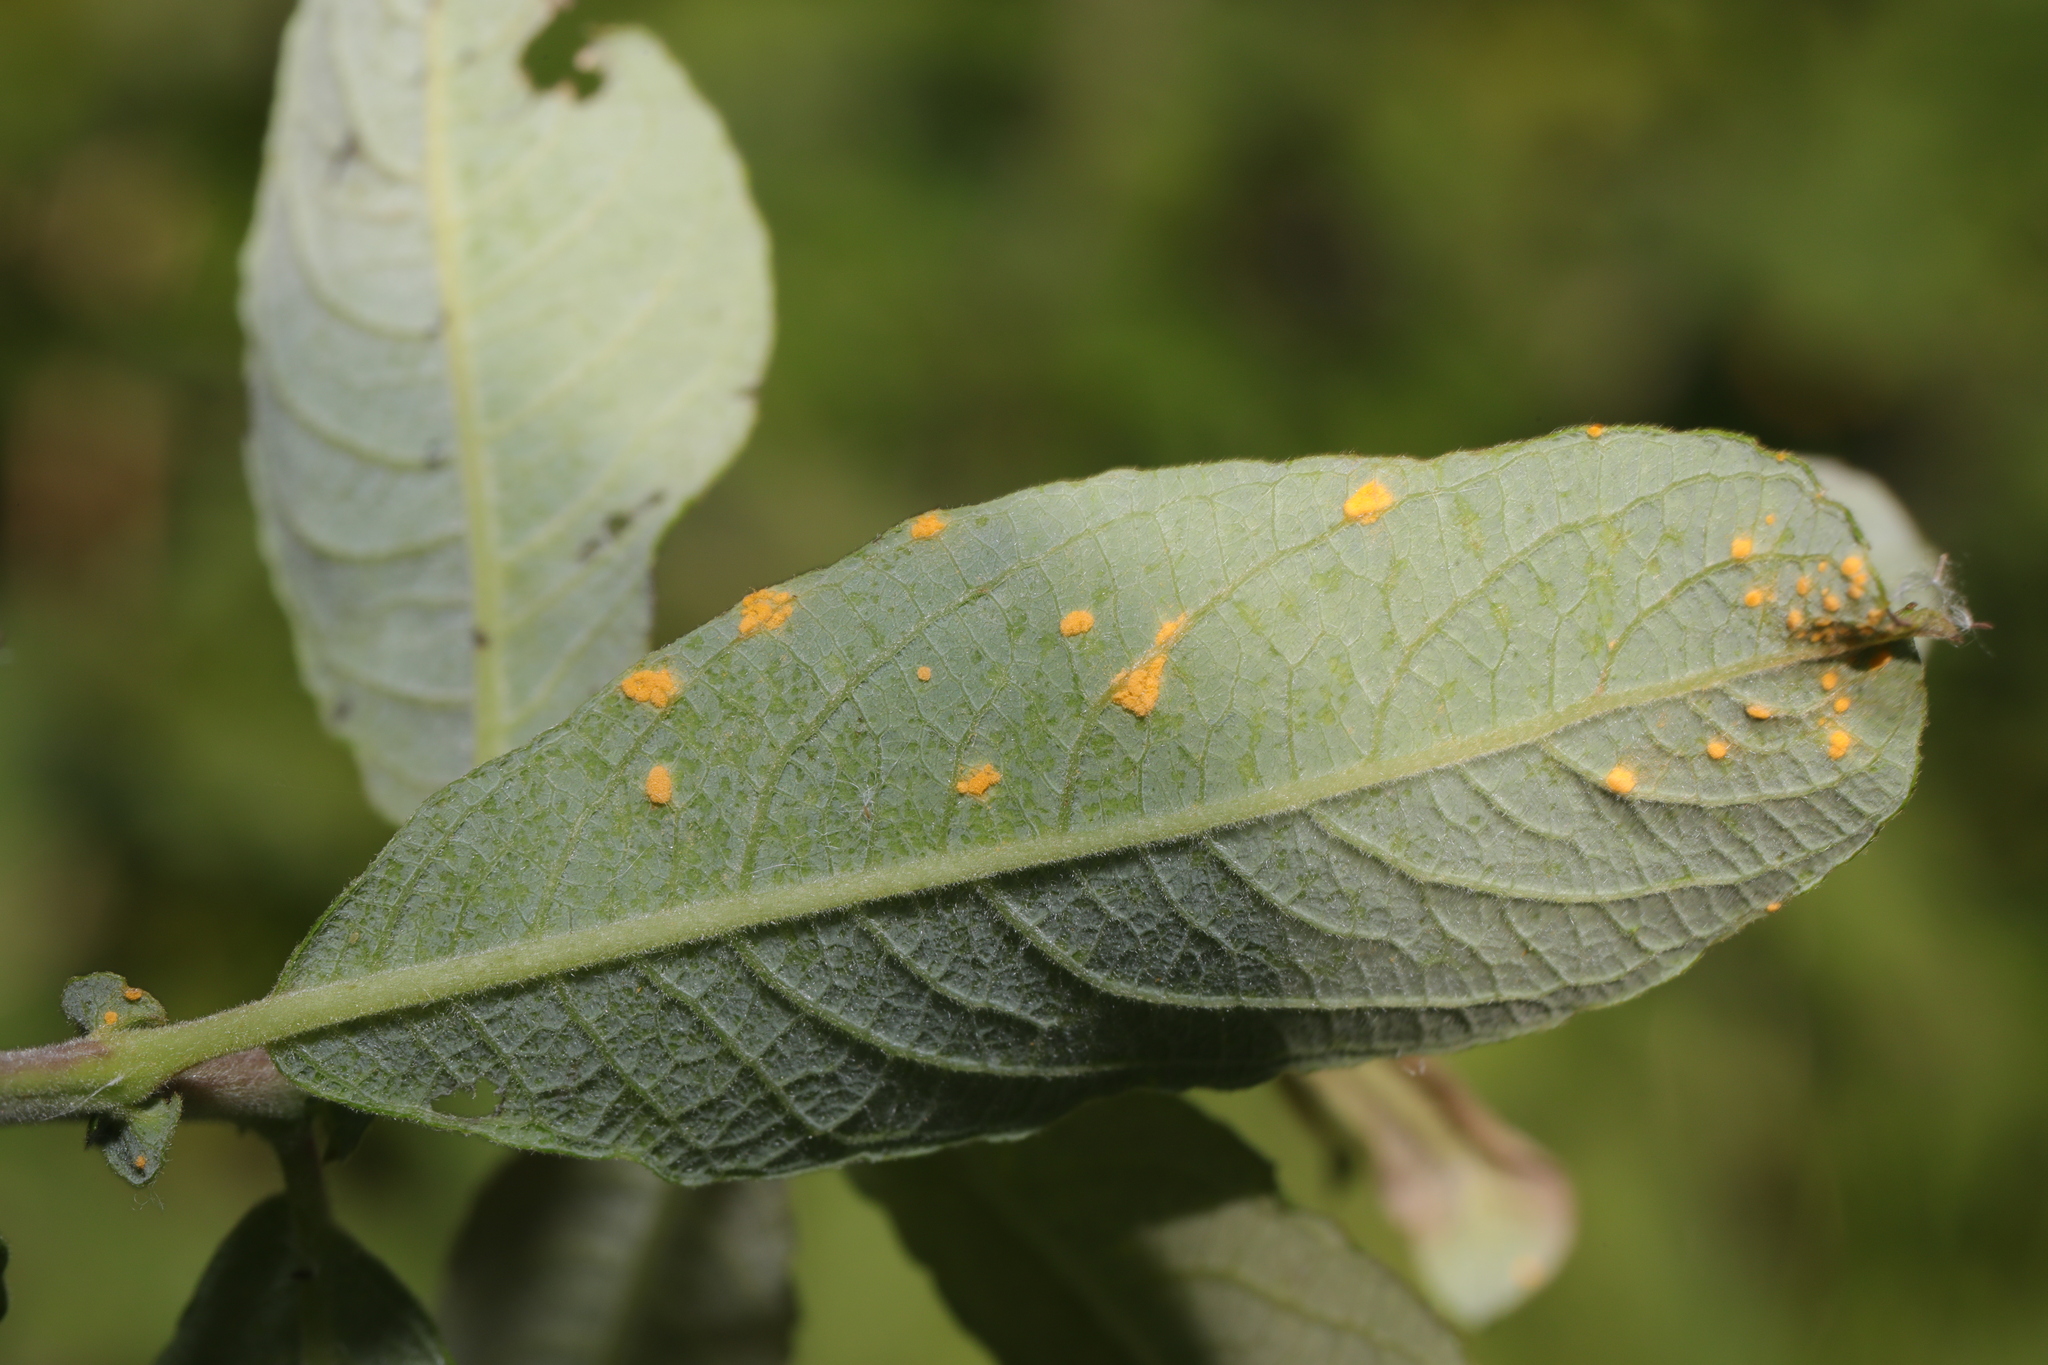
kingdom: Fungi
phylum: Basidiomycota
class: Pucciniomycetes
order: Pucciniales
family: Melampsoraceae
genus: Melampsora
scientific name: Melampsora
